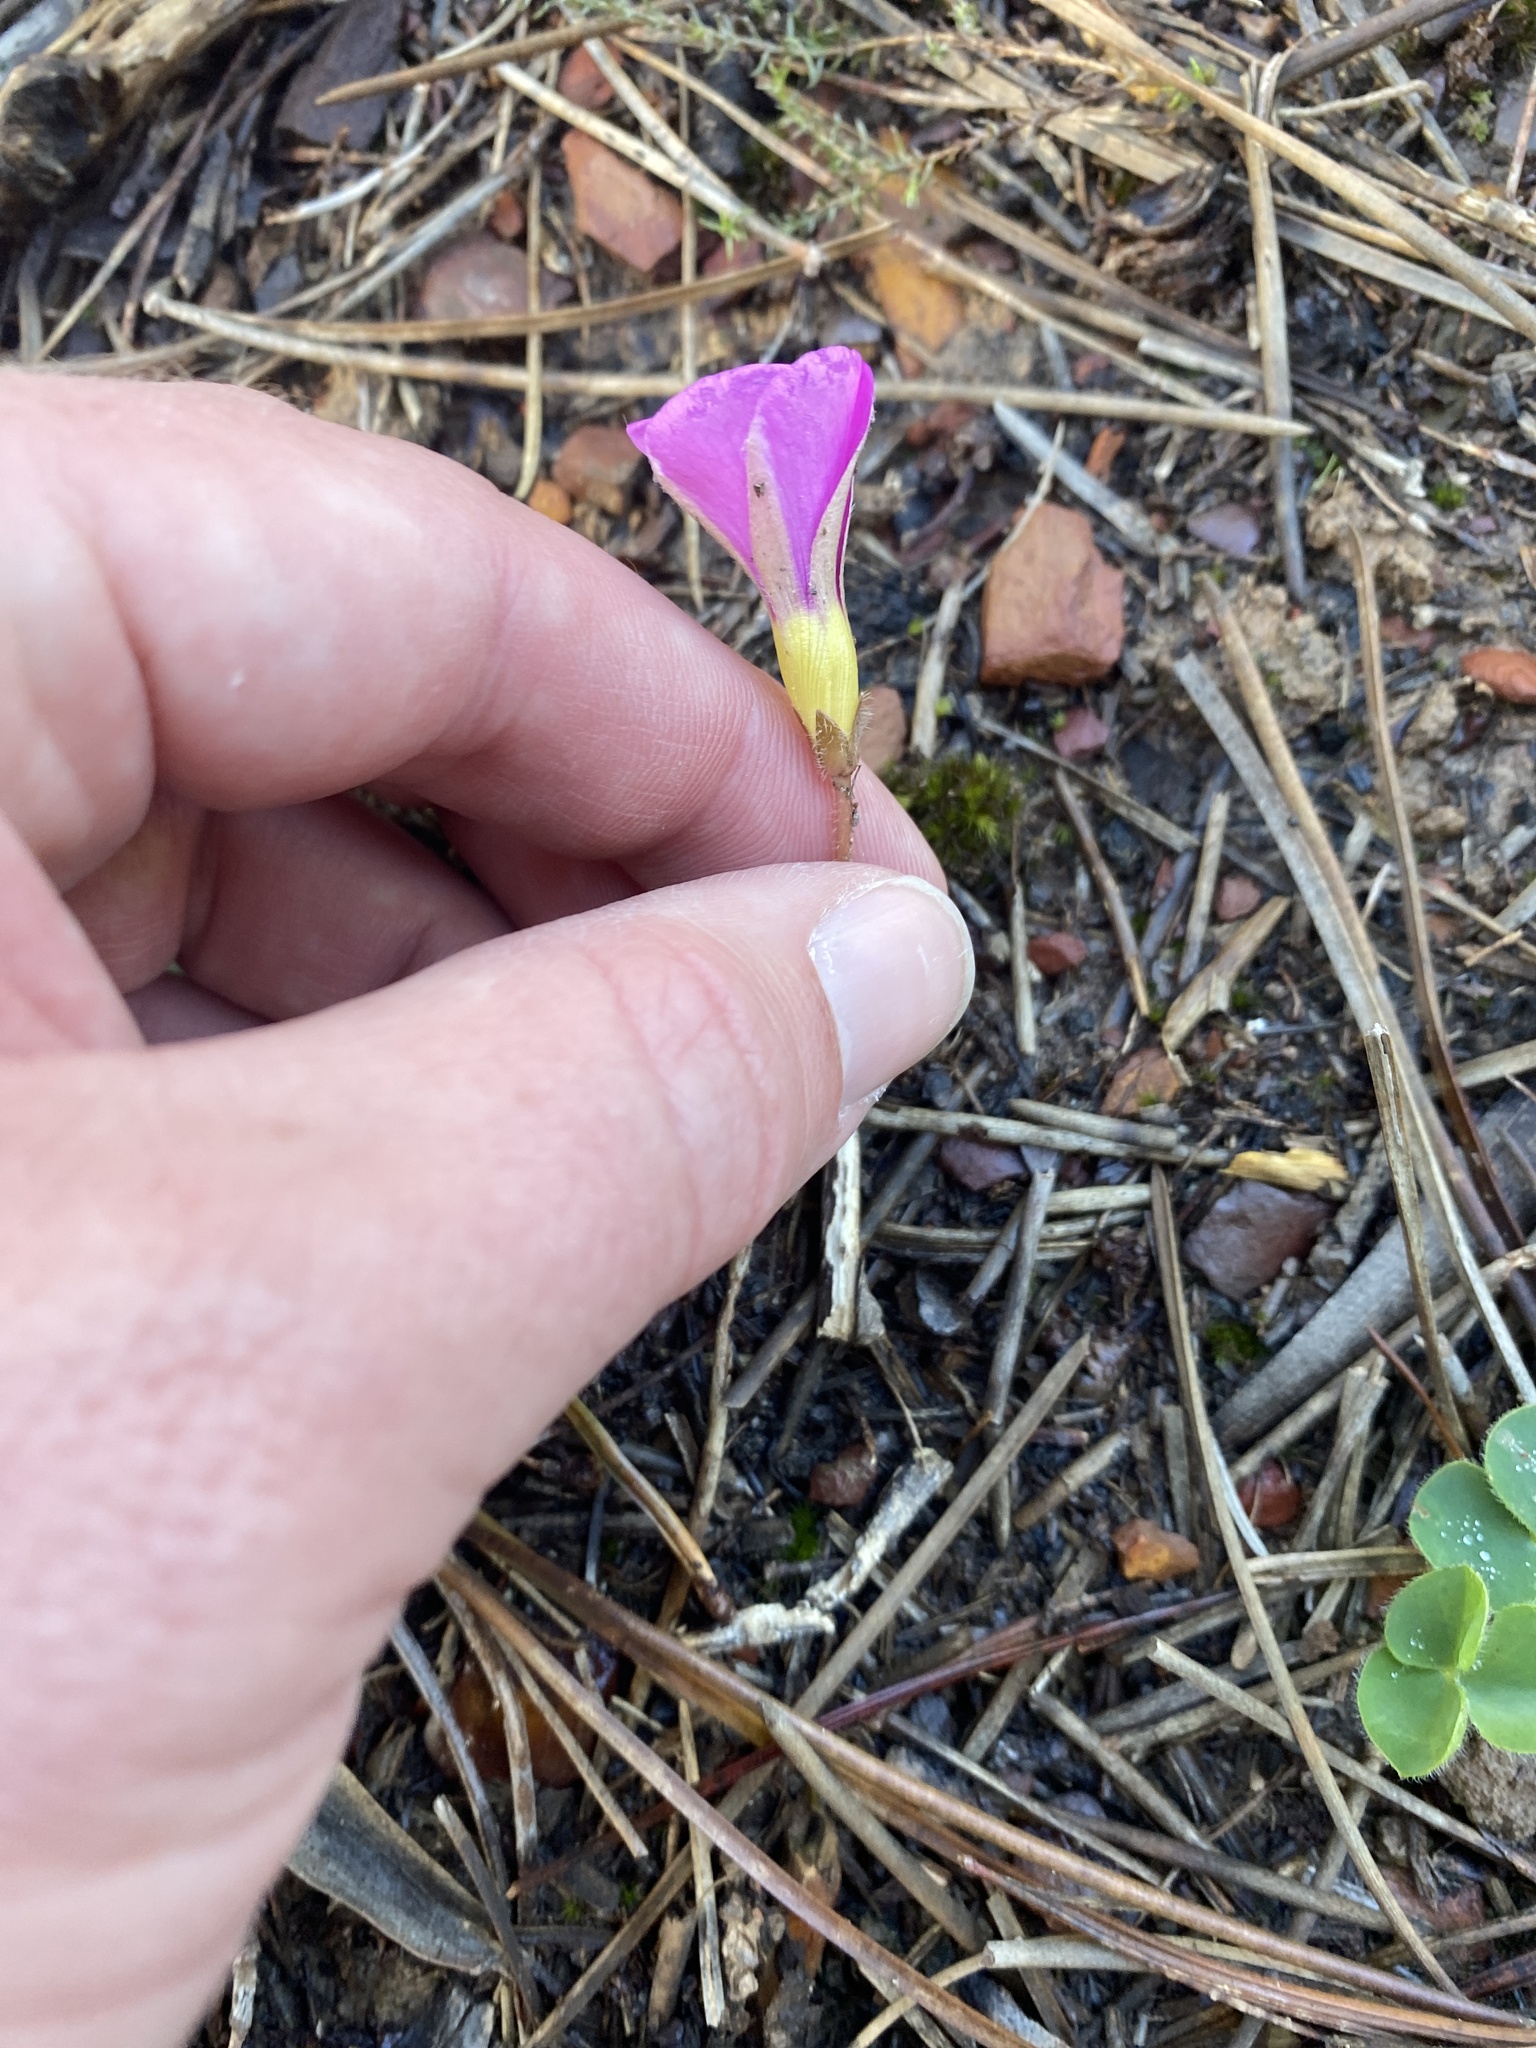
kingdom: Plantae
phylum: Tracheophyta
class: Magnoliopsida
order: Oxalidales
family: Oxalidaceae
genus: Oxalis
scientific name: Oxalis purpurea
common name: Purple woodsorrel
